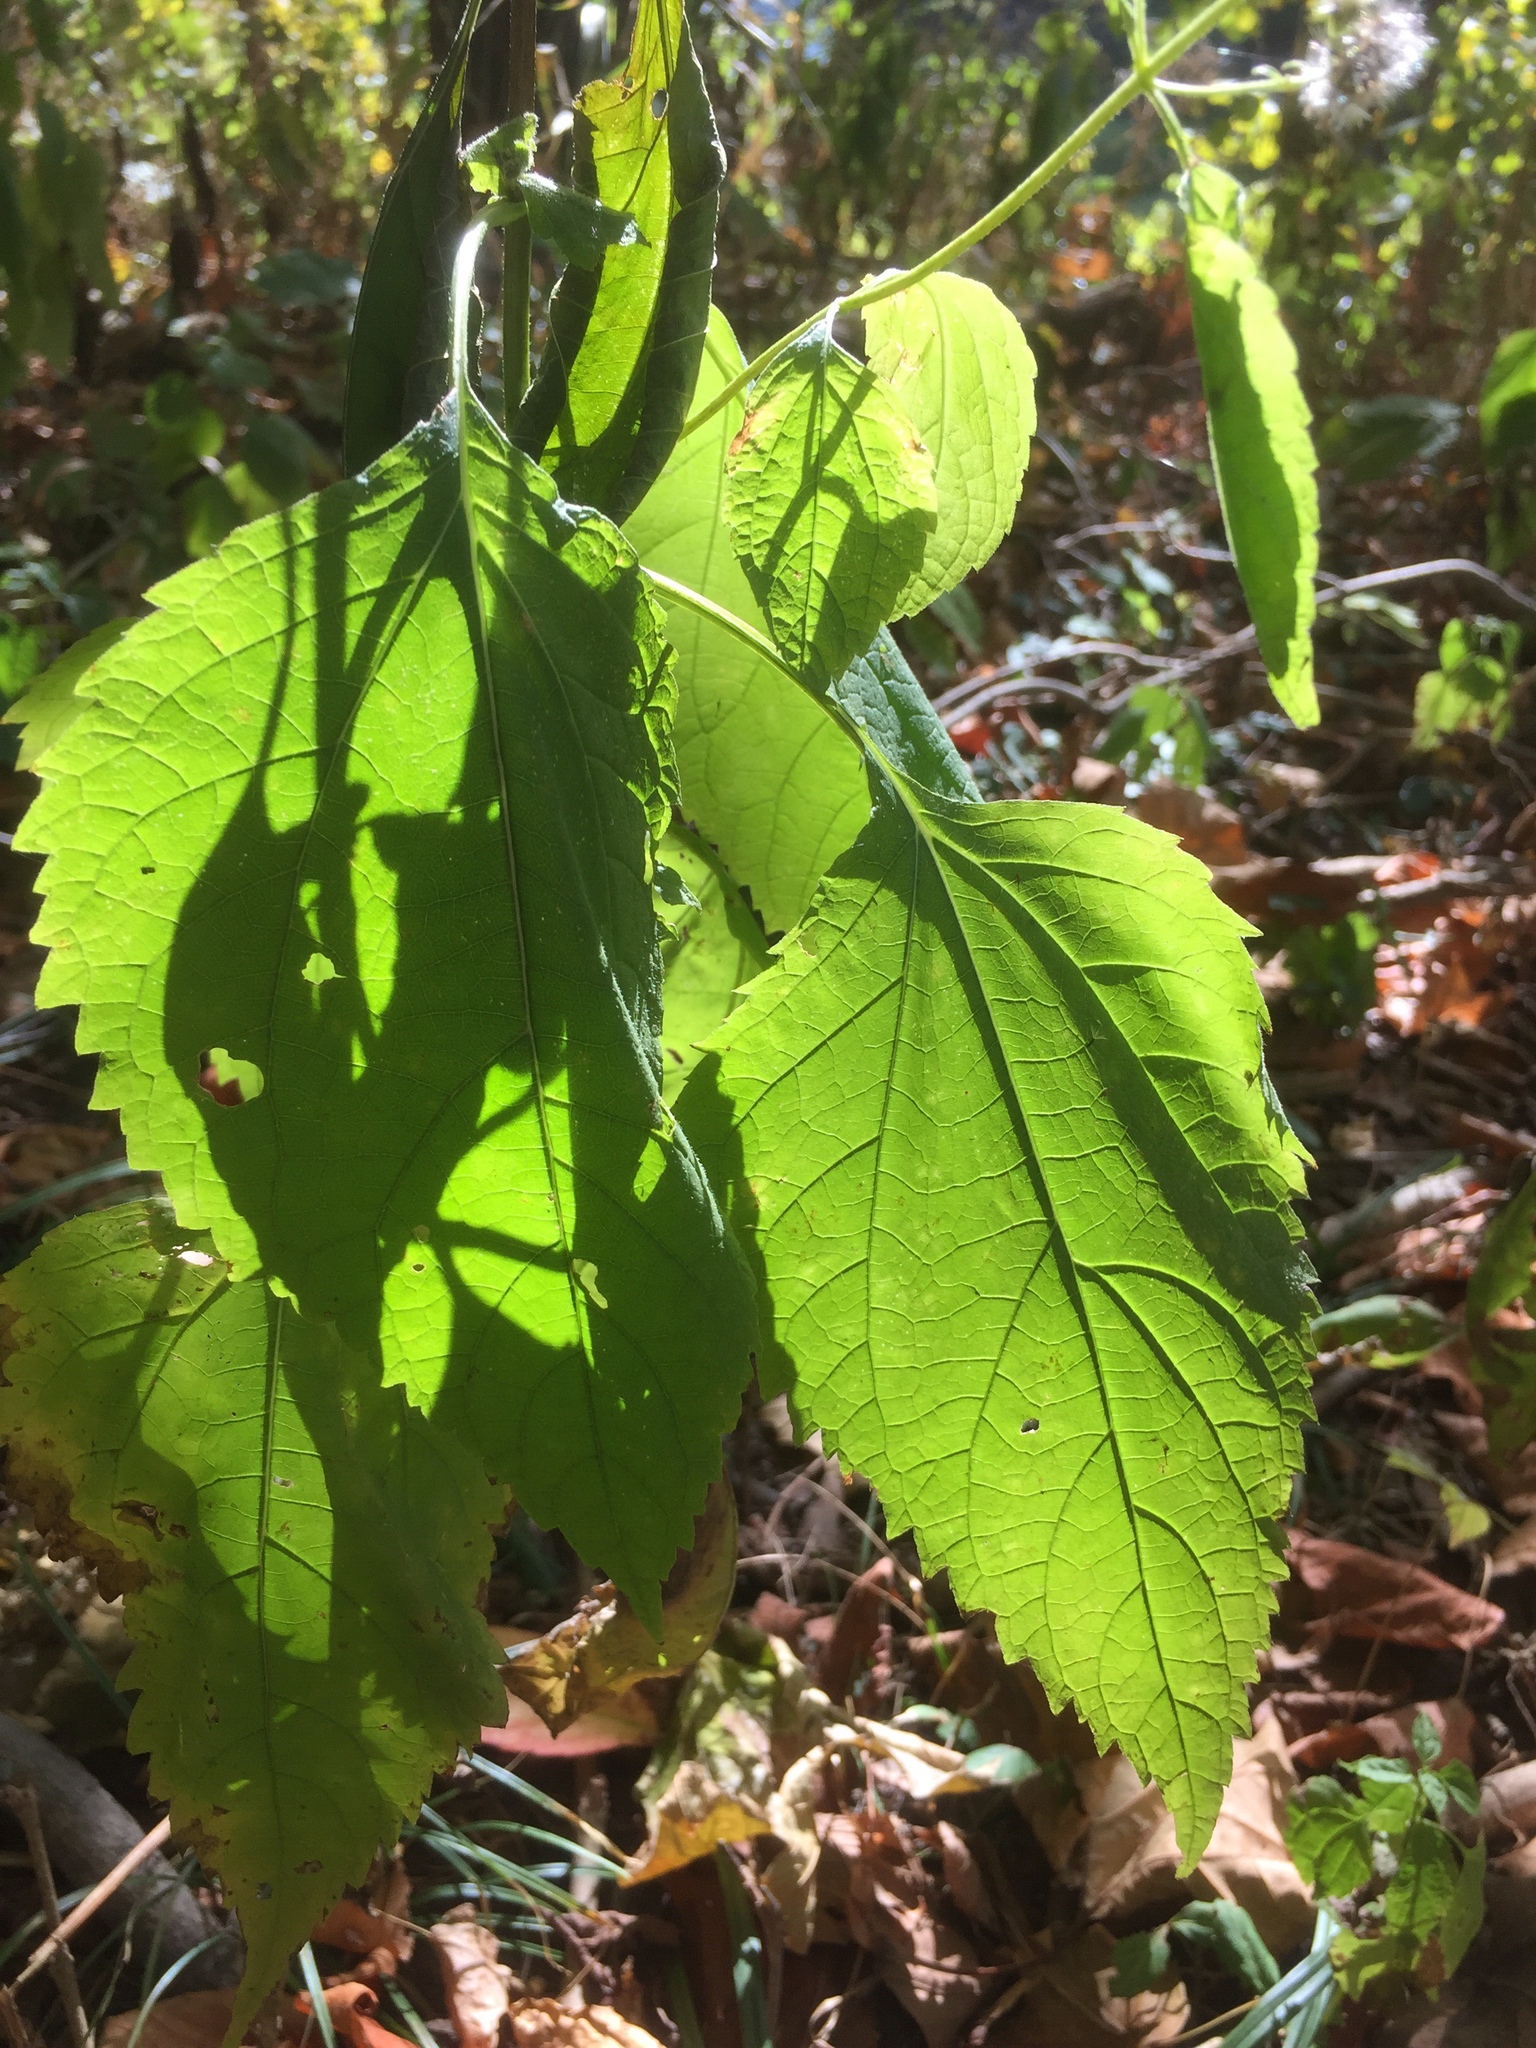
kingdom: Plantae
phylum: Tracheophyta
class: Magnoliopsida
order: Asterales
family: Asteraceae
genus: Ageratina
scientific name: Ageratina altissima
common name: White snakeroot
